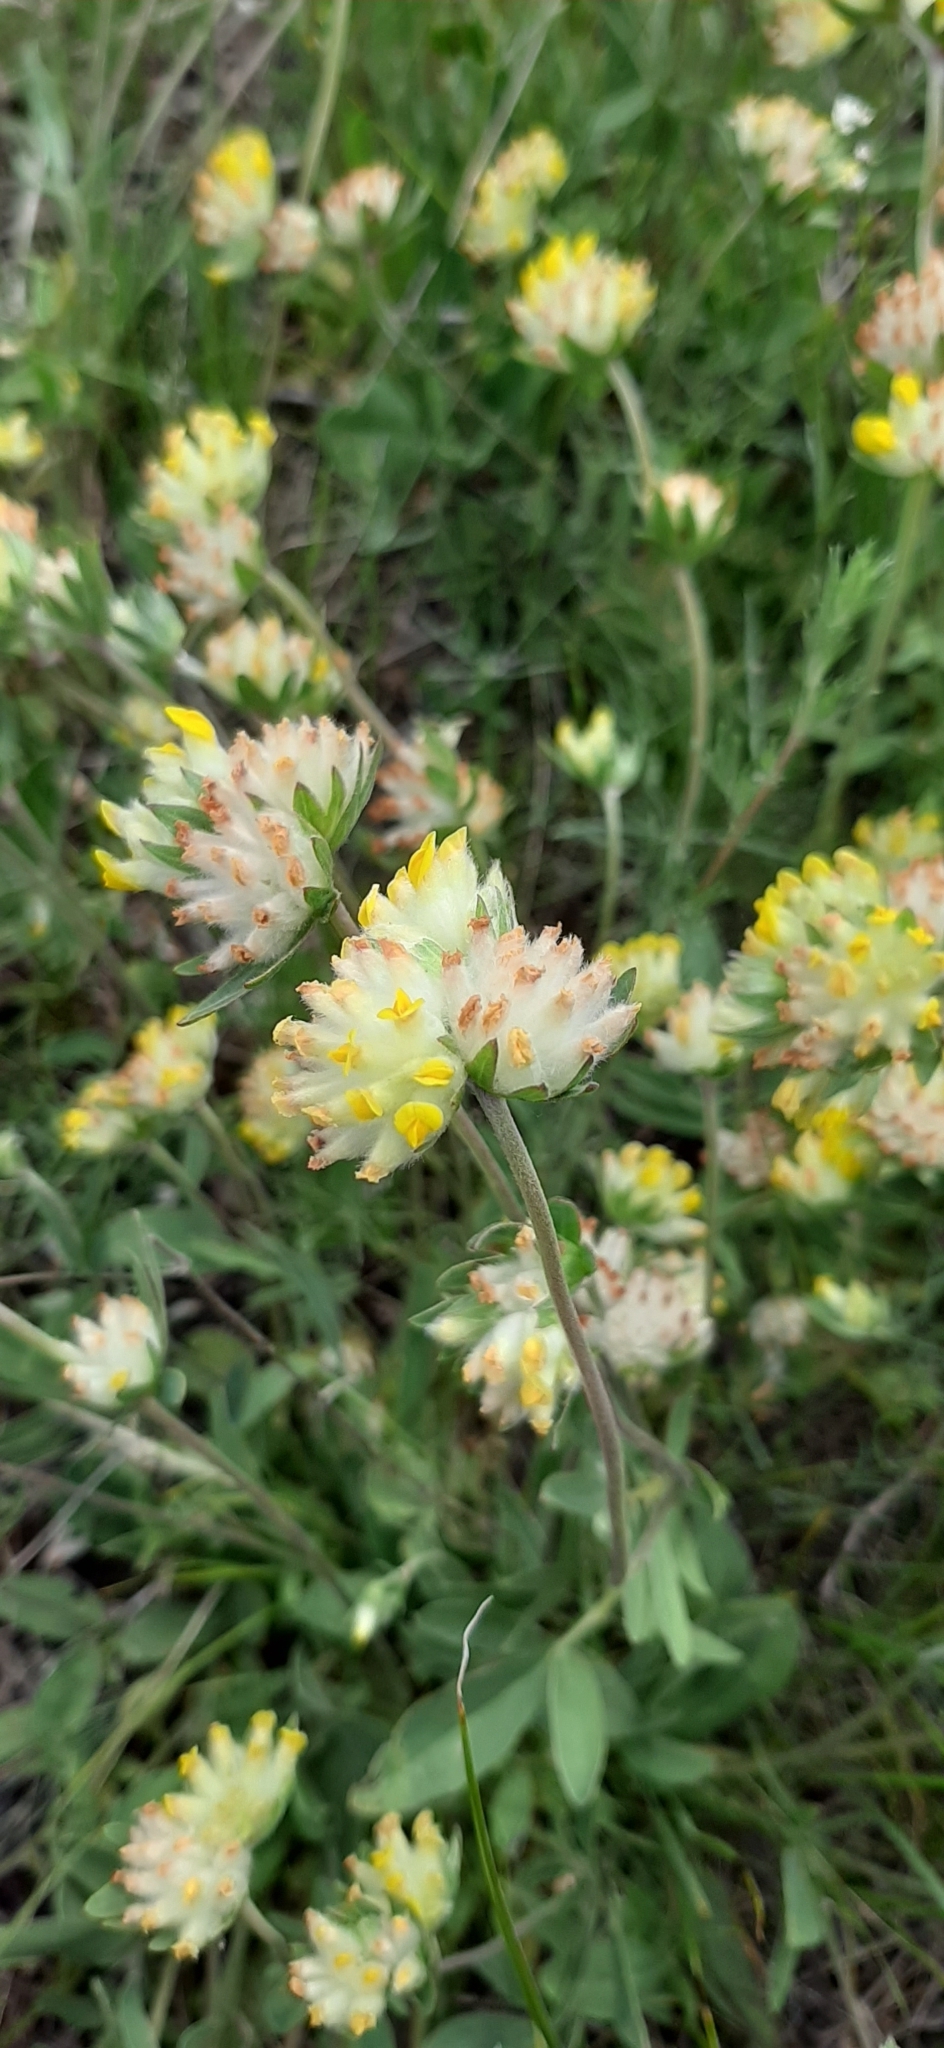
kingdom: Plantae
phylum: Tracheophyta
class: Magnoliopsida
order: Fabales
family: Fabaceae
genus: Anthyllis
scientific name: Anthyllis vulneraria
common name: Kidney vetch
